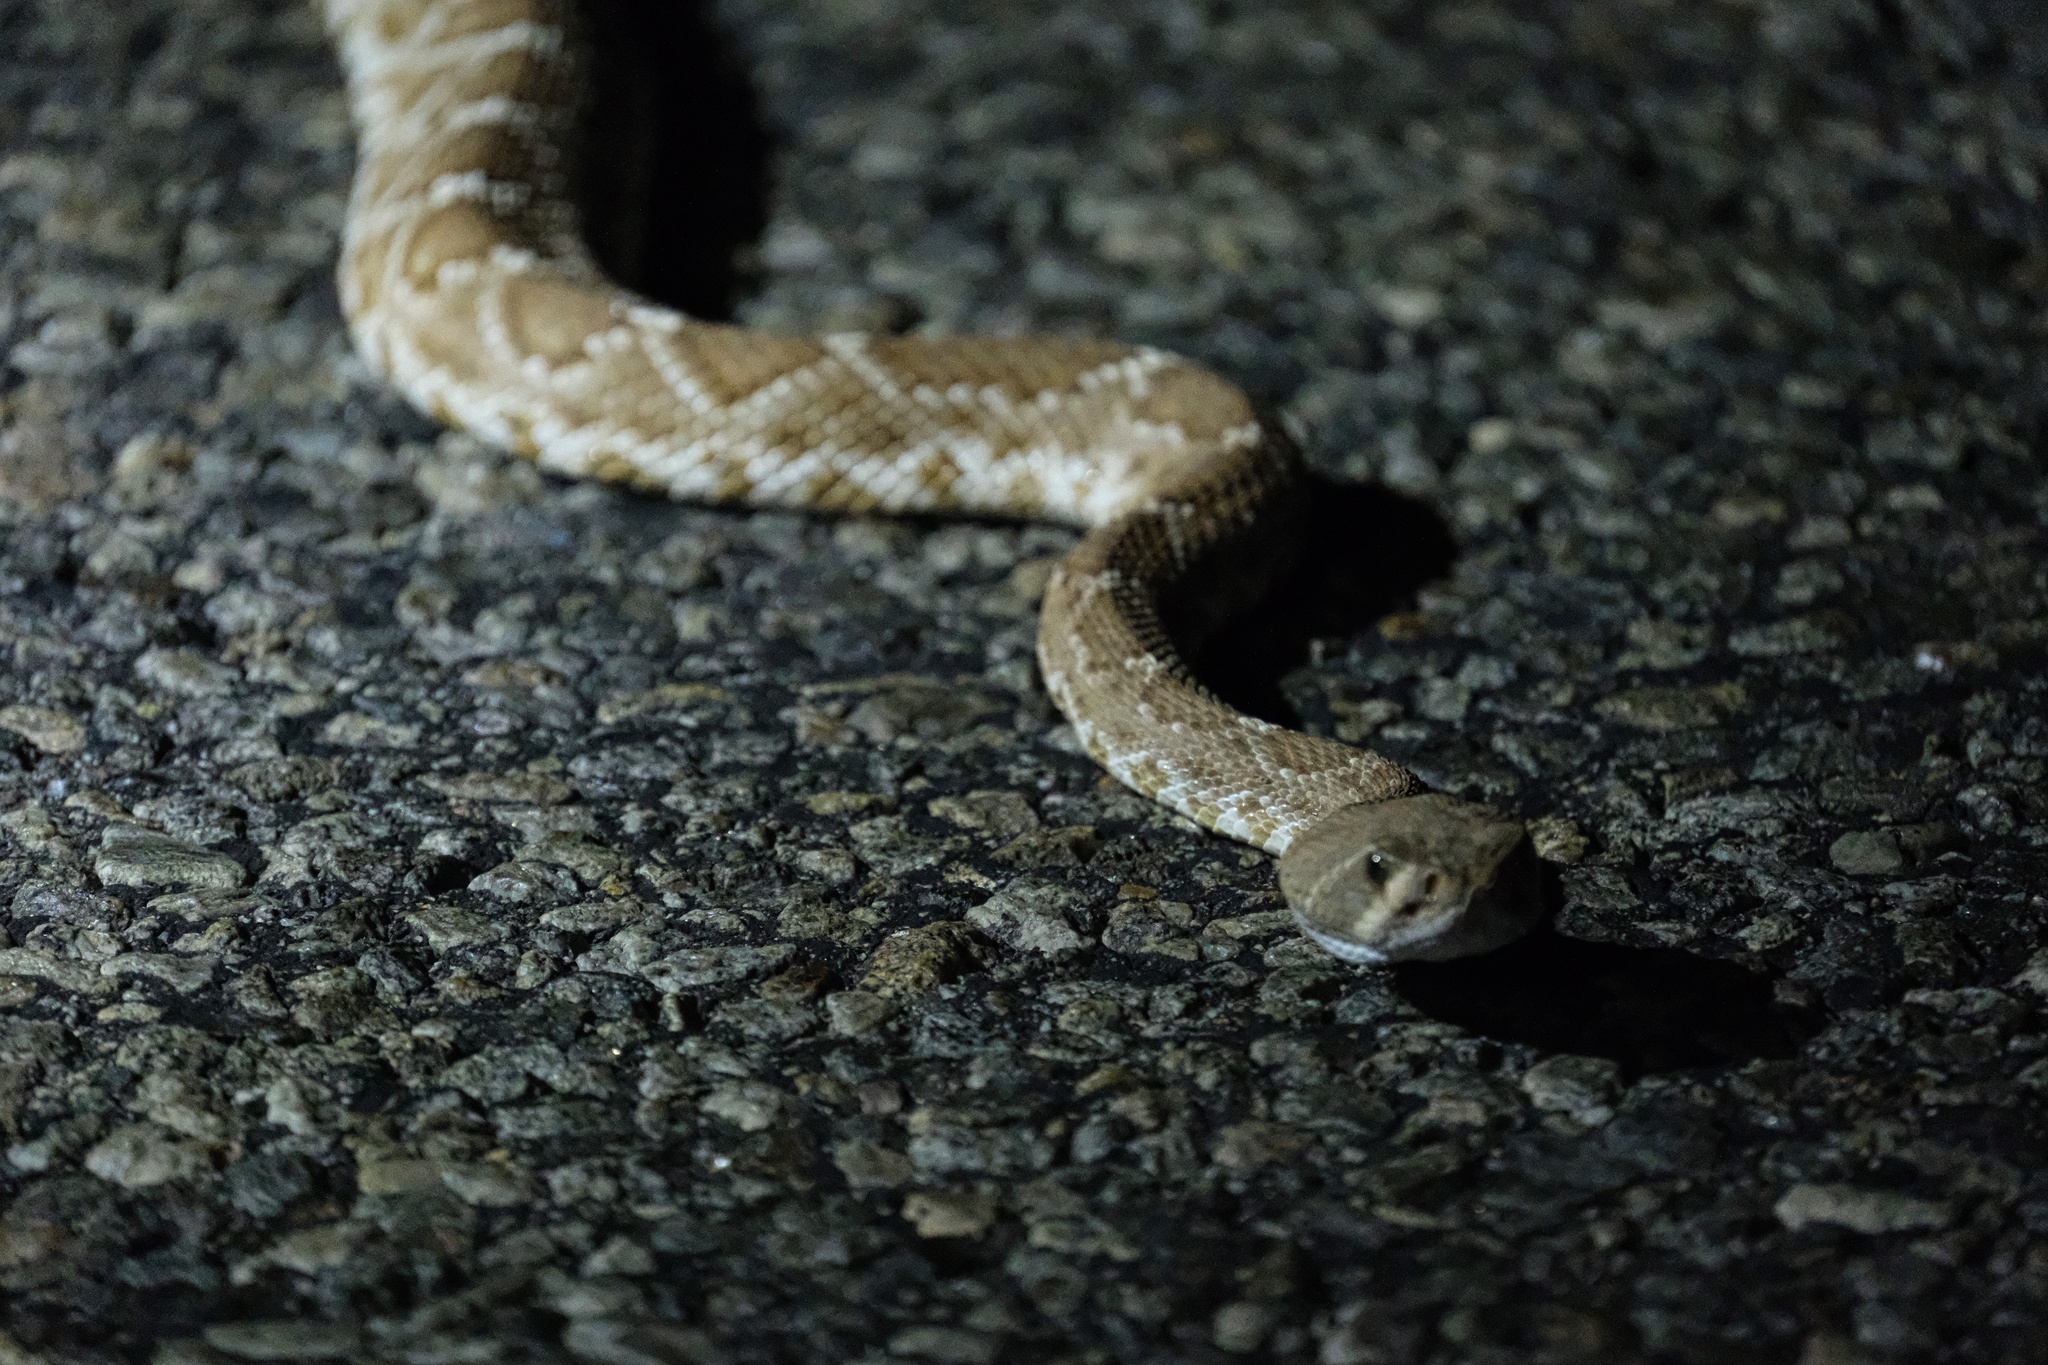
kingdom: Animalia
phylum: Chordata
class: Squamata
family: Viperidae
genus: Crotalus
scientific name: Crotalus ruber
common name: Red diamond rattlesnake
